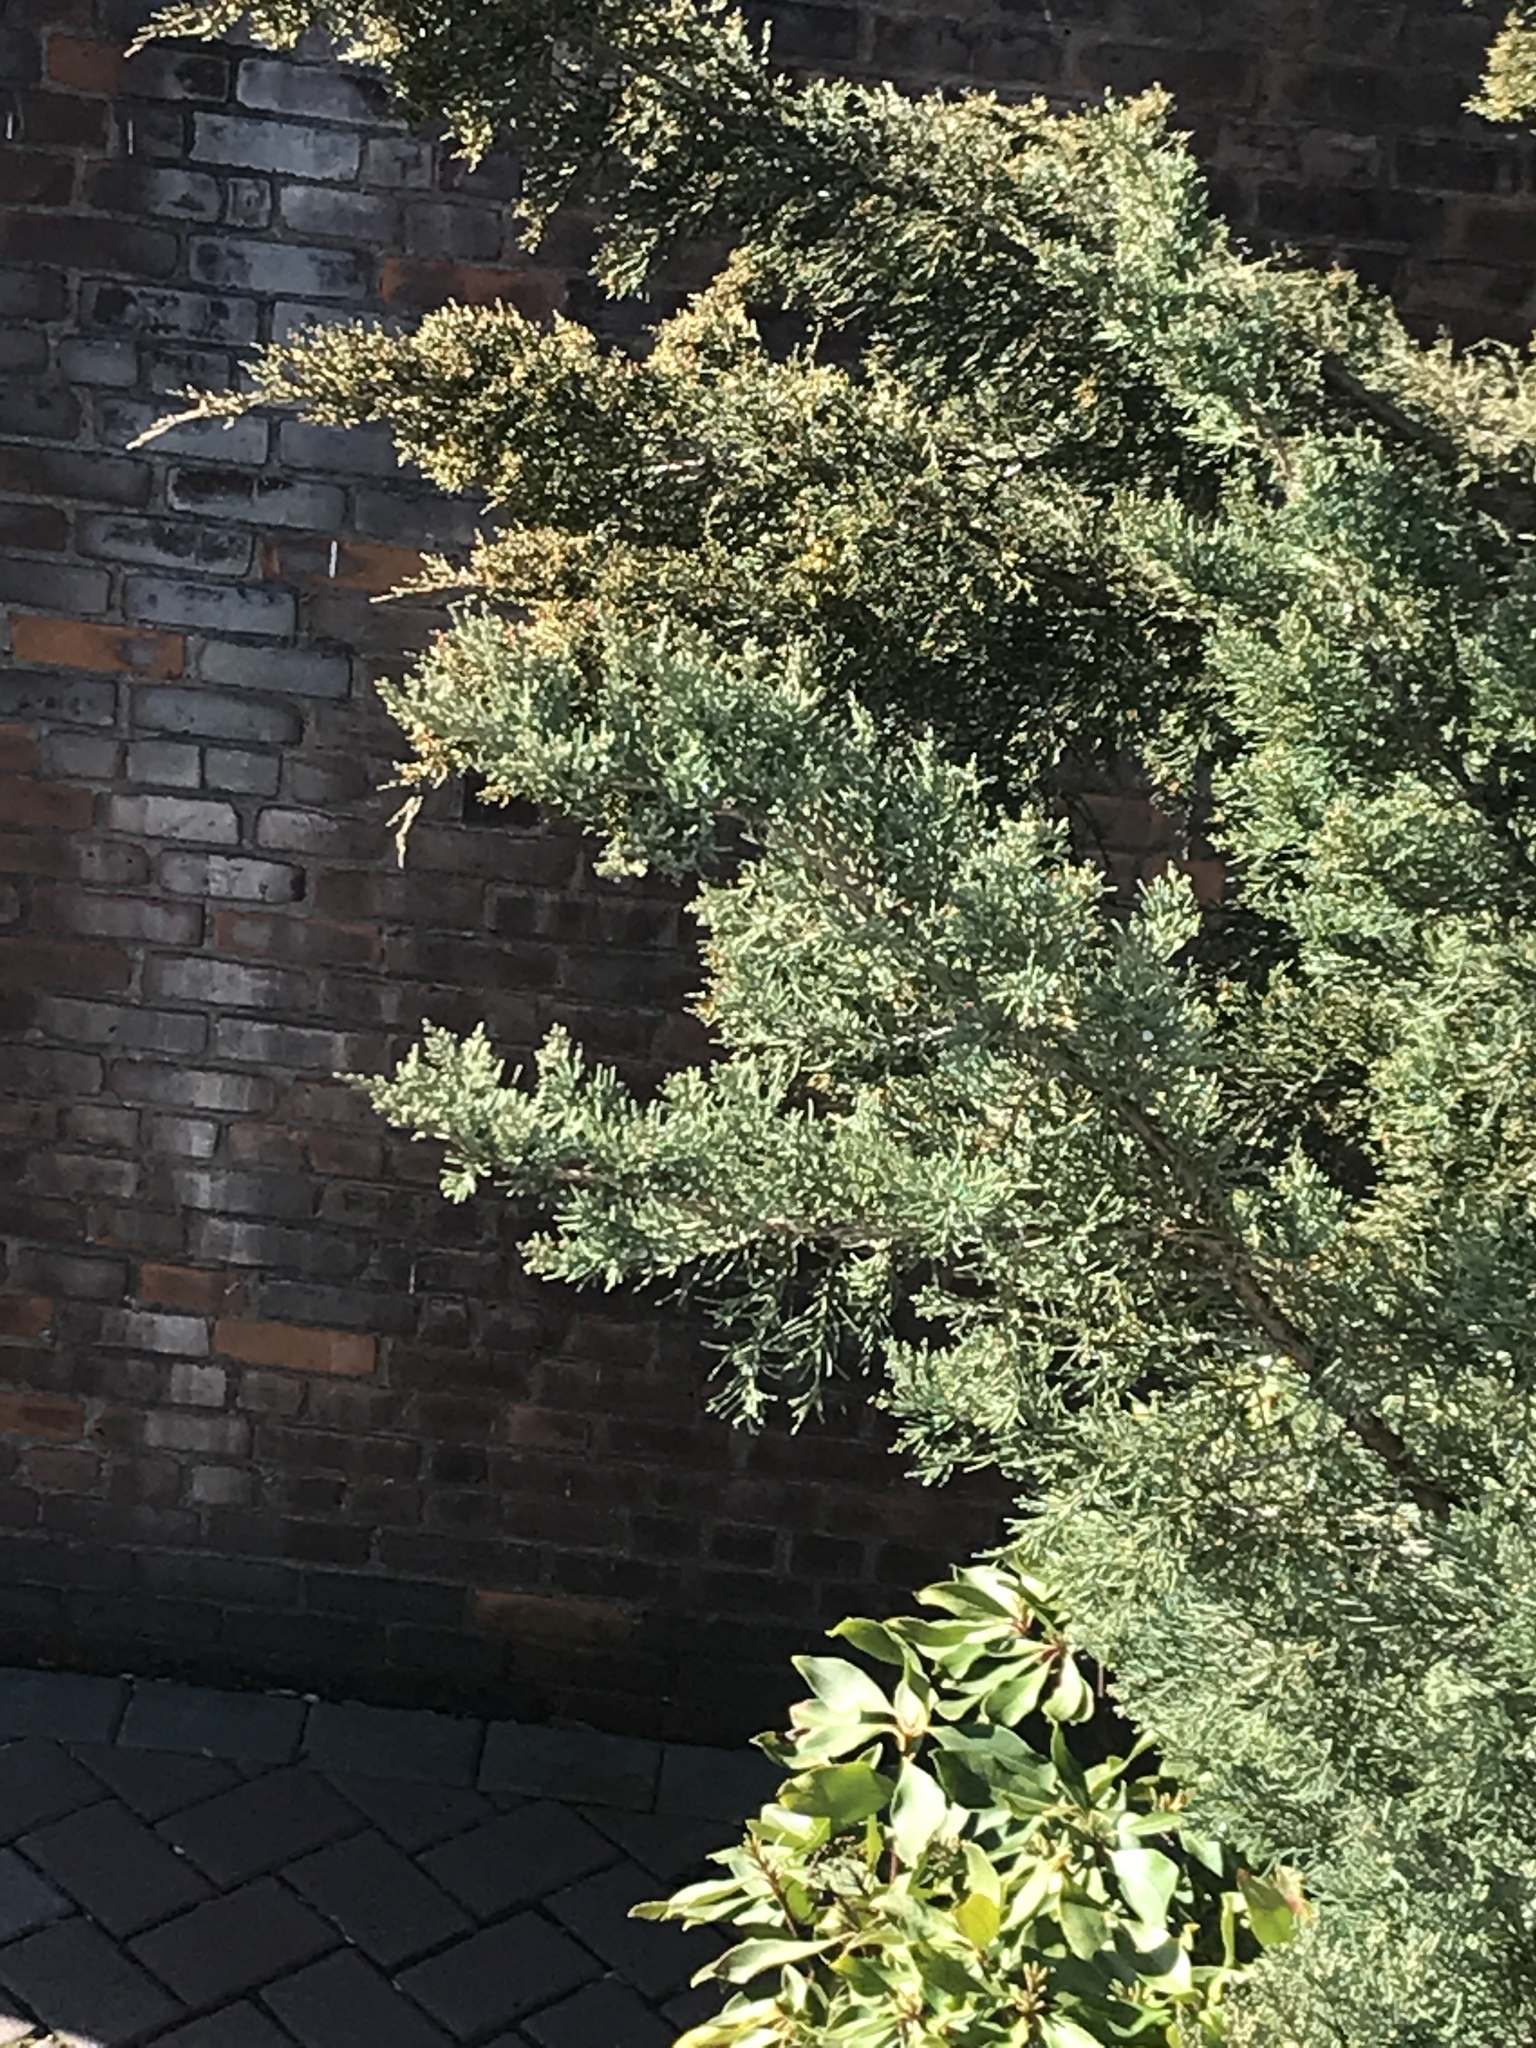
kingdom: Plantae
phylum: Tracheophyta
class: Pinopsida
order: Pinales
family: Cupressaceae
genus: Juniperus
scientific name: Juniperus virginiana
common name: Red juniper
